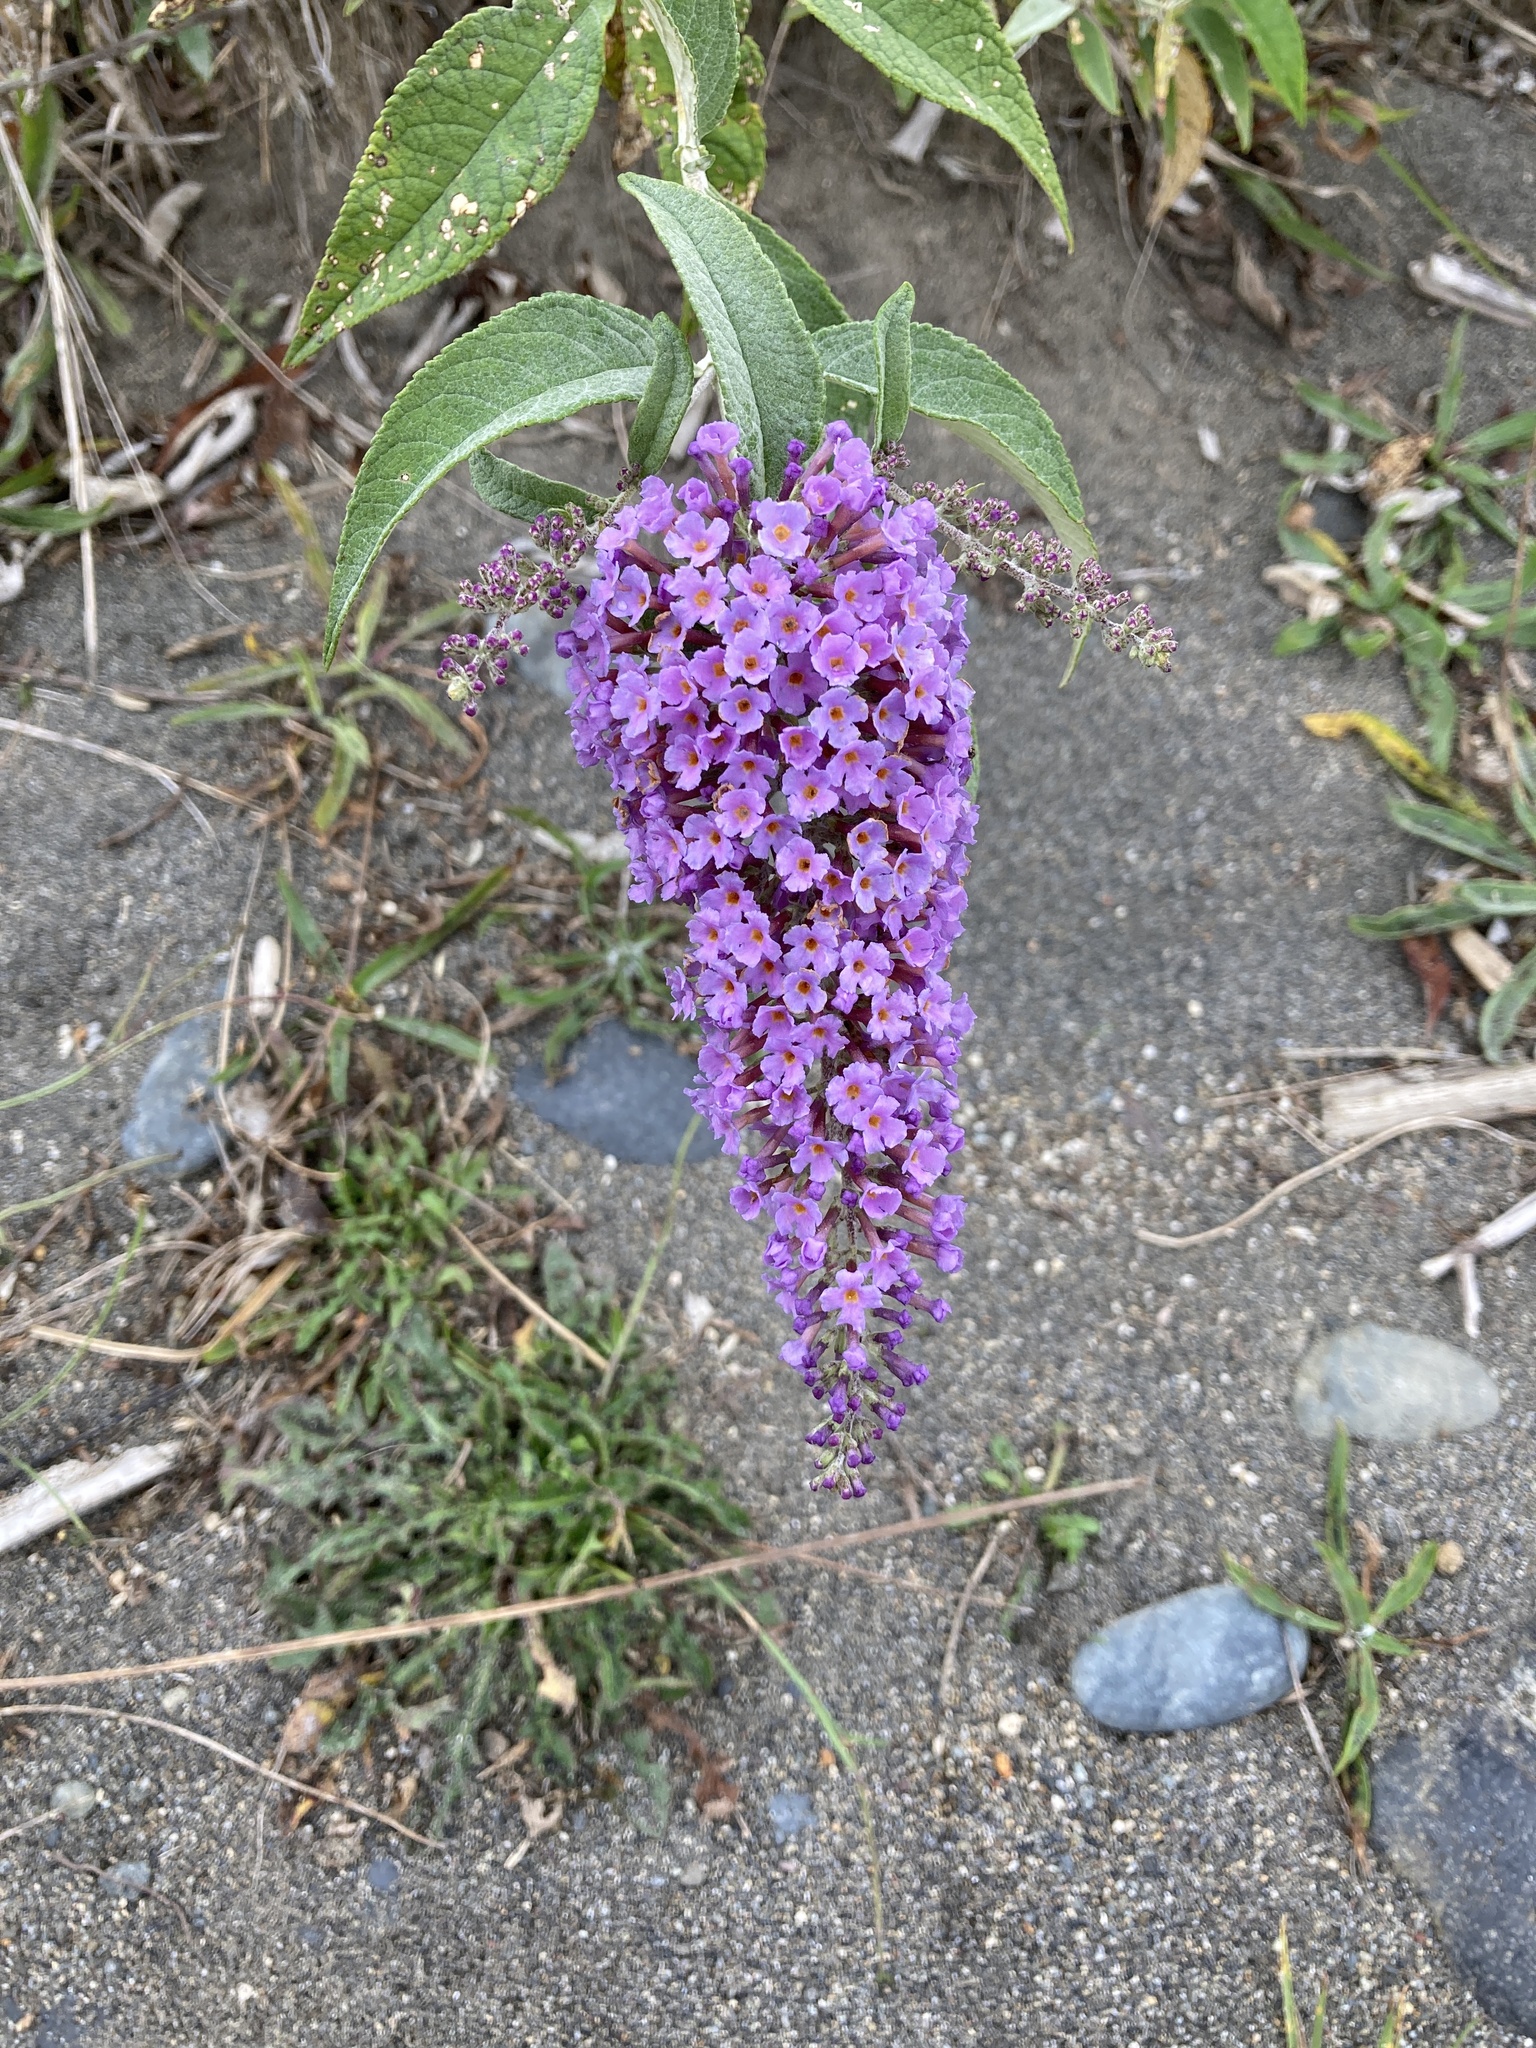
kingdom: Plantae
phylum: Tracheophyta
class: Magnoliopsida
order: Lamiales
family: Scrophulariaceae
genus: Buddleja
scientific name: Buddleja davidii
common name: Butterfly-bush
